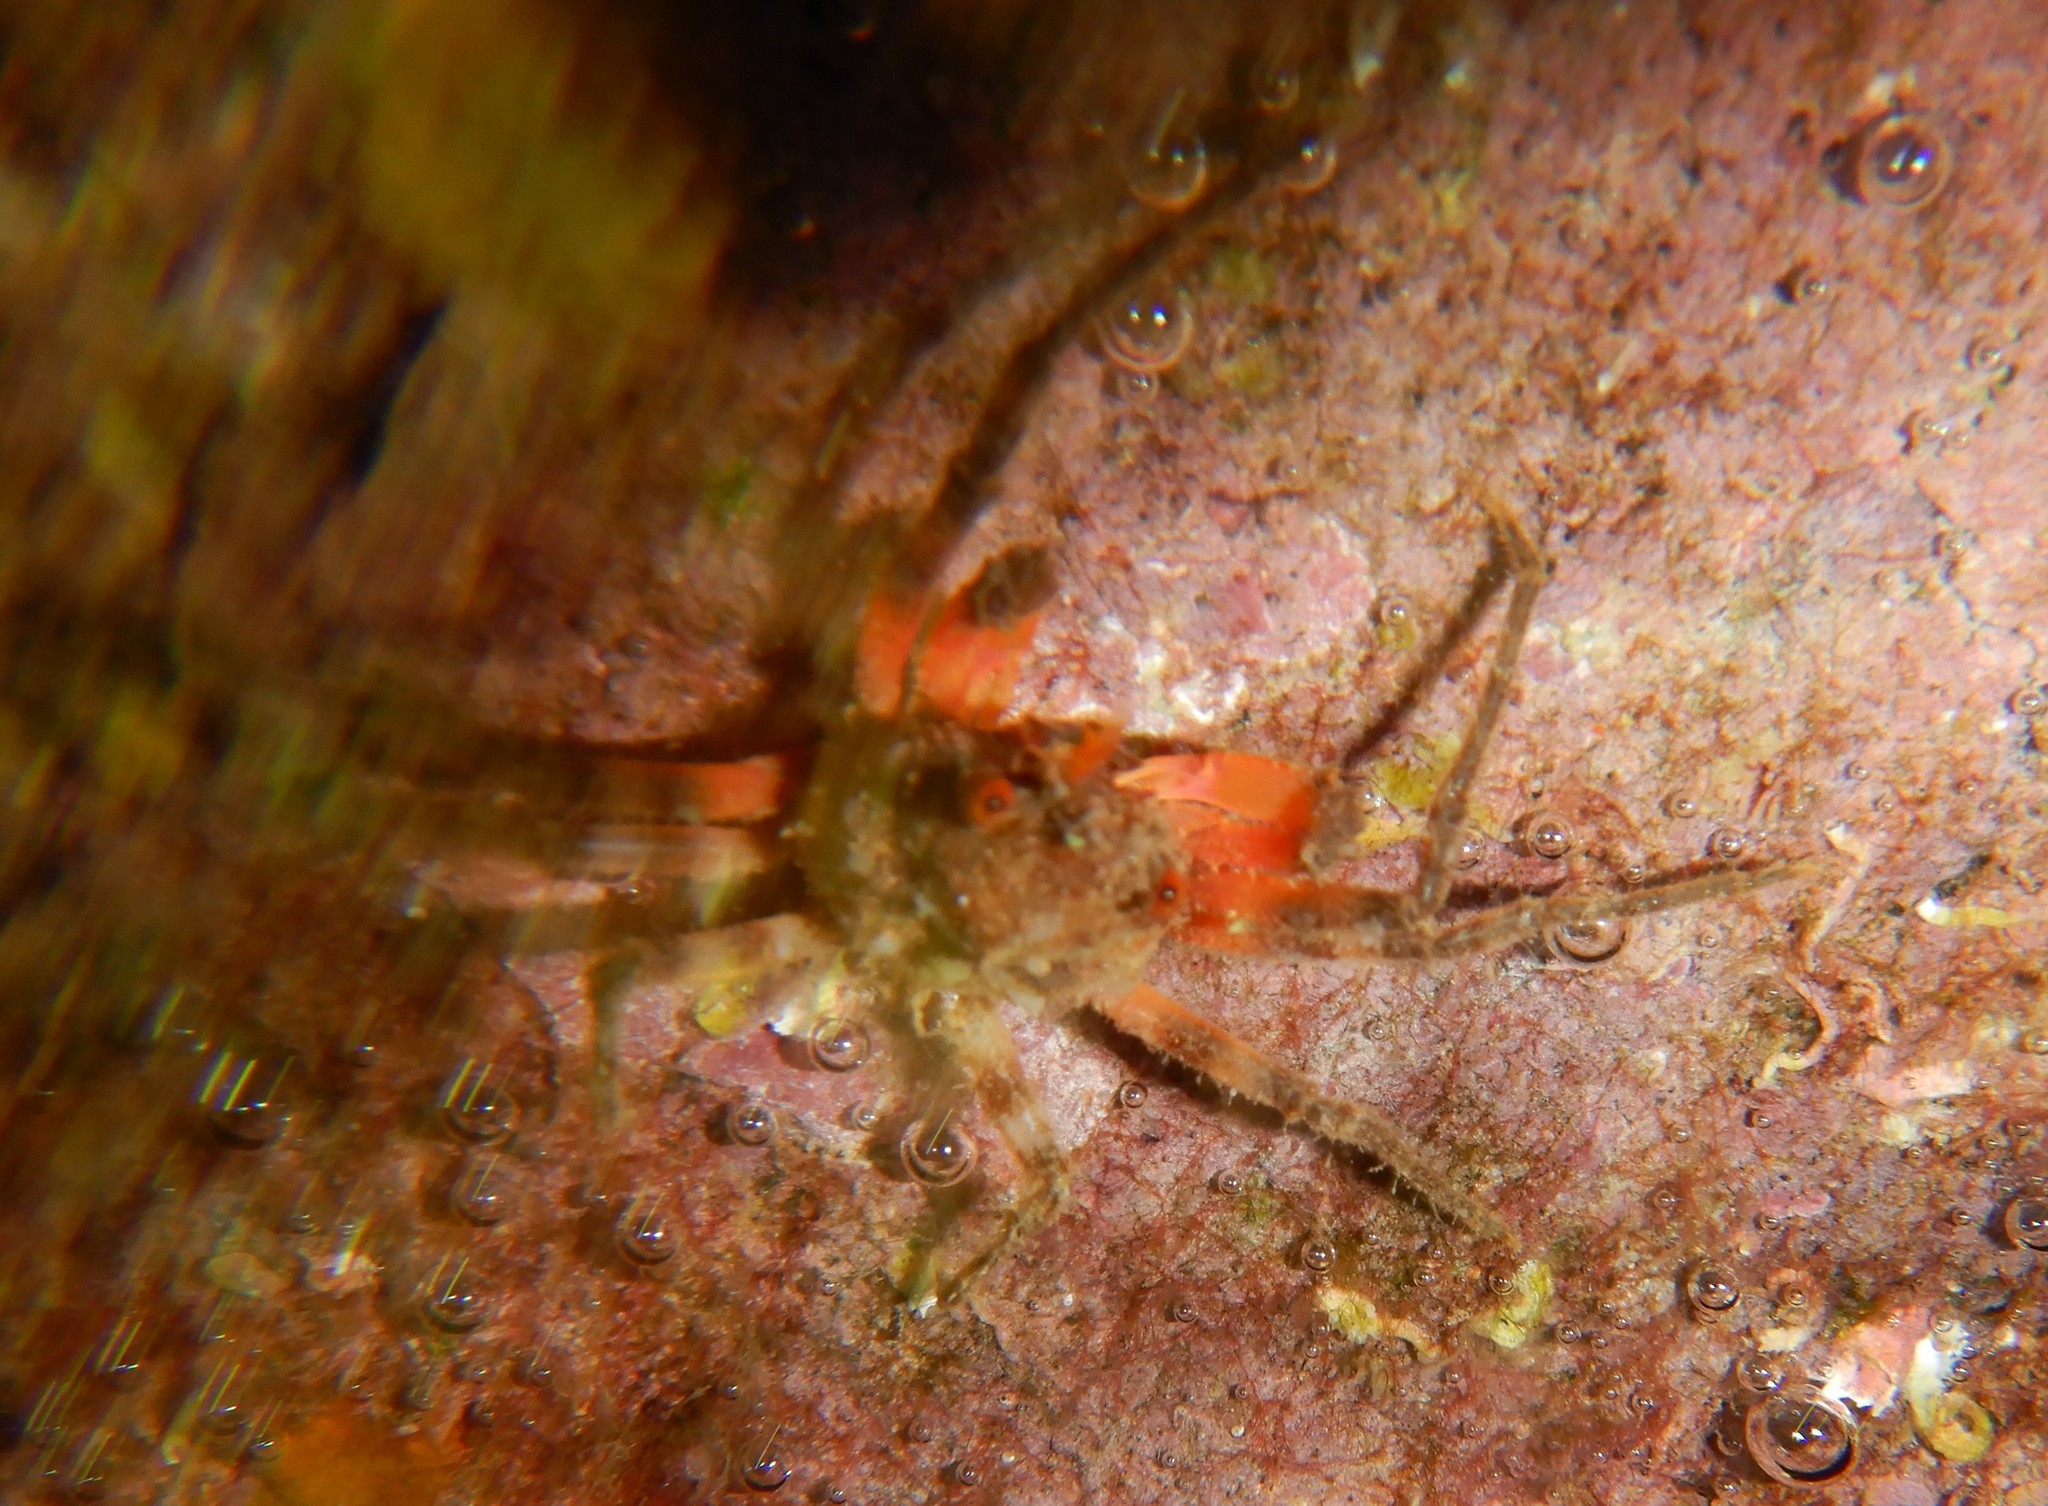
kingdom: Animalia
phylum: Arthropoda
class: Malacostraca
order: Decapoda
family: Epialtidae
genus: Herbstia
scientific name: Herbstia condyliata
